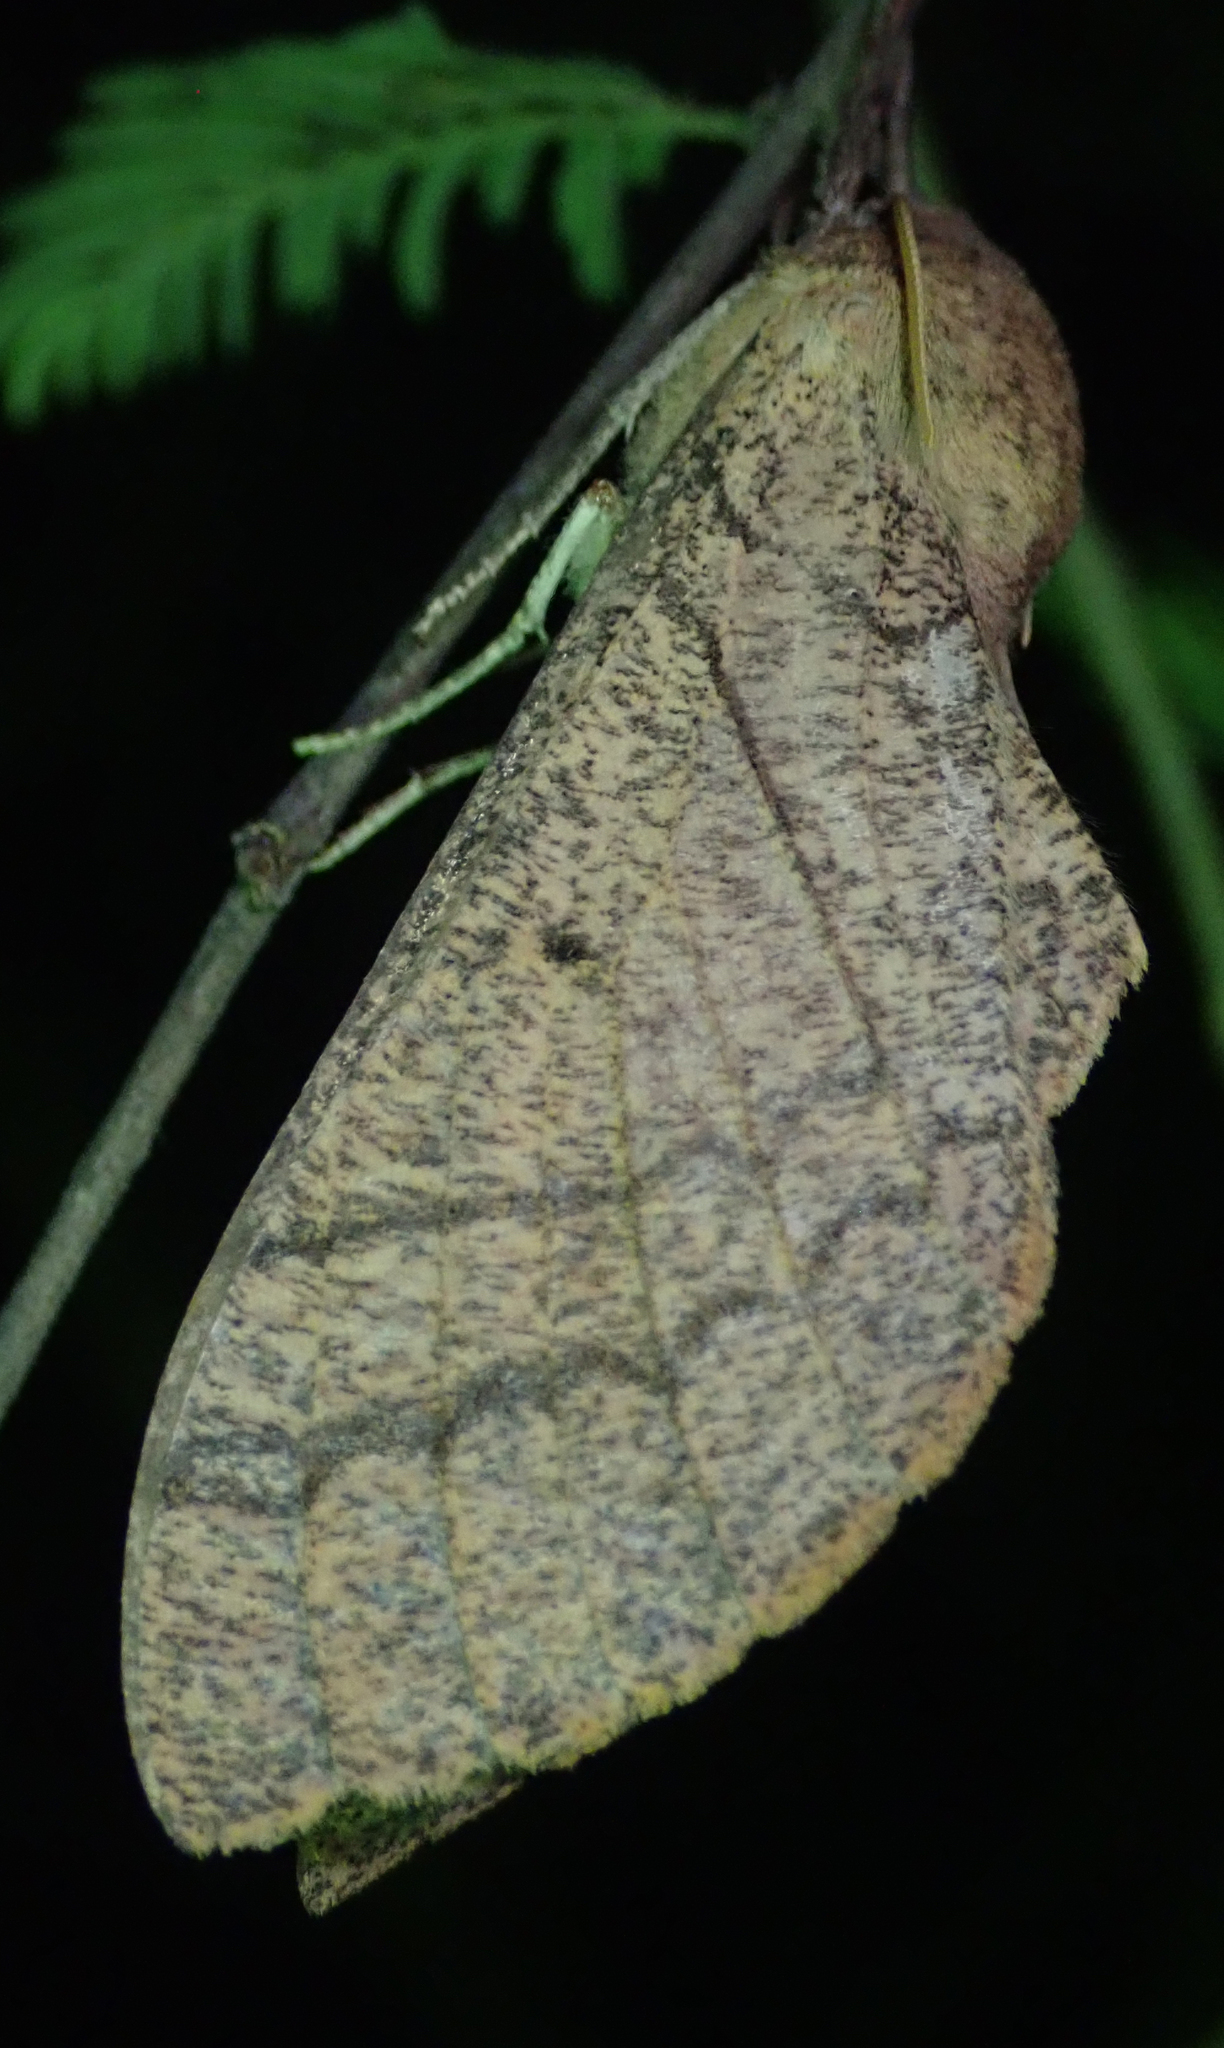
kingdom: Animalia
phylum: Arthropoda
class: Insecta
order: Lepidoptera
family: Sphingidae
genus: Neoclanis
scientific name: Neoclanis basalis
